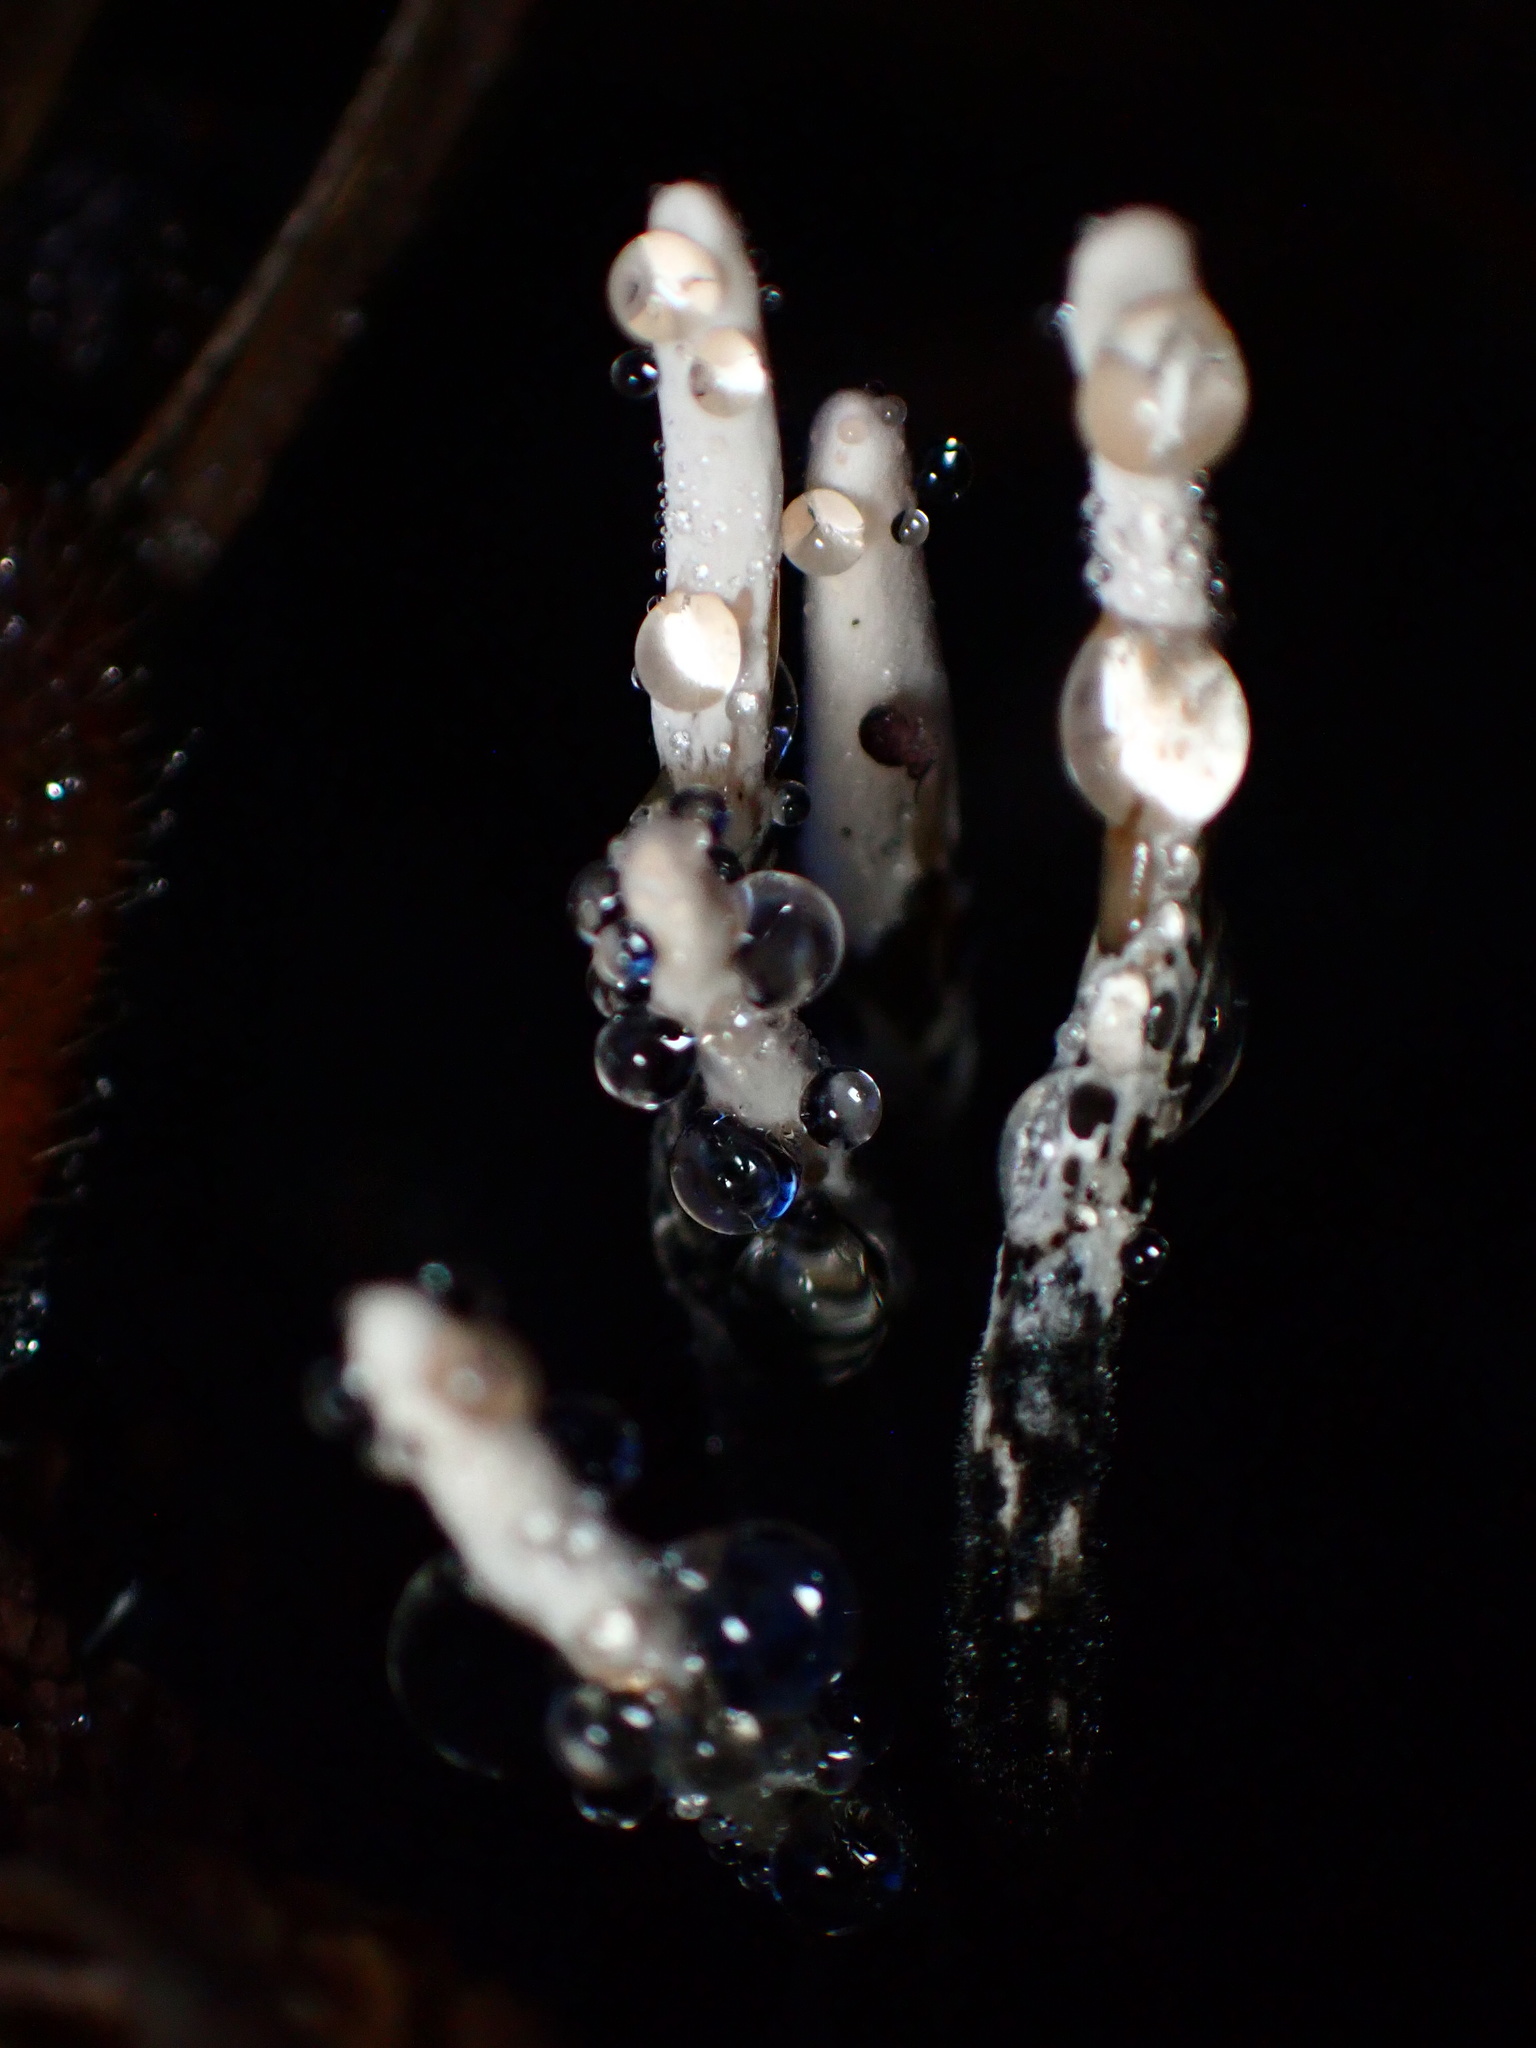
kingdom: Fungi
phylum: Ascomycota
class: Sordariomycetes
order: Xylariales
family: Xylariaceae
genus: Xylaria
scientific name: Xylaria hypoxylon
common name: Candle-snuff fungus
